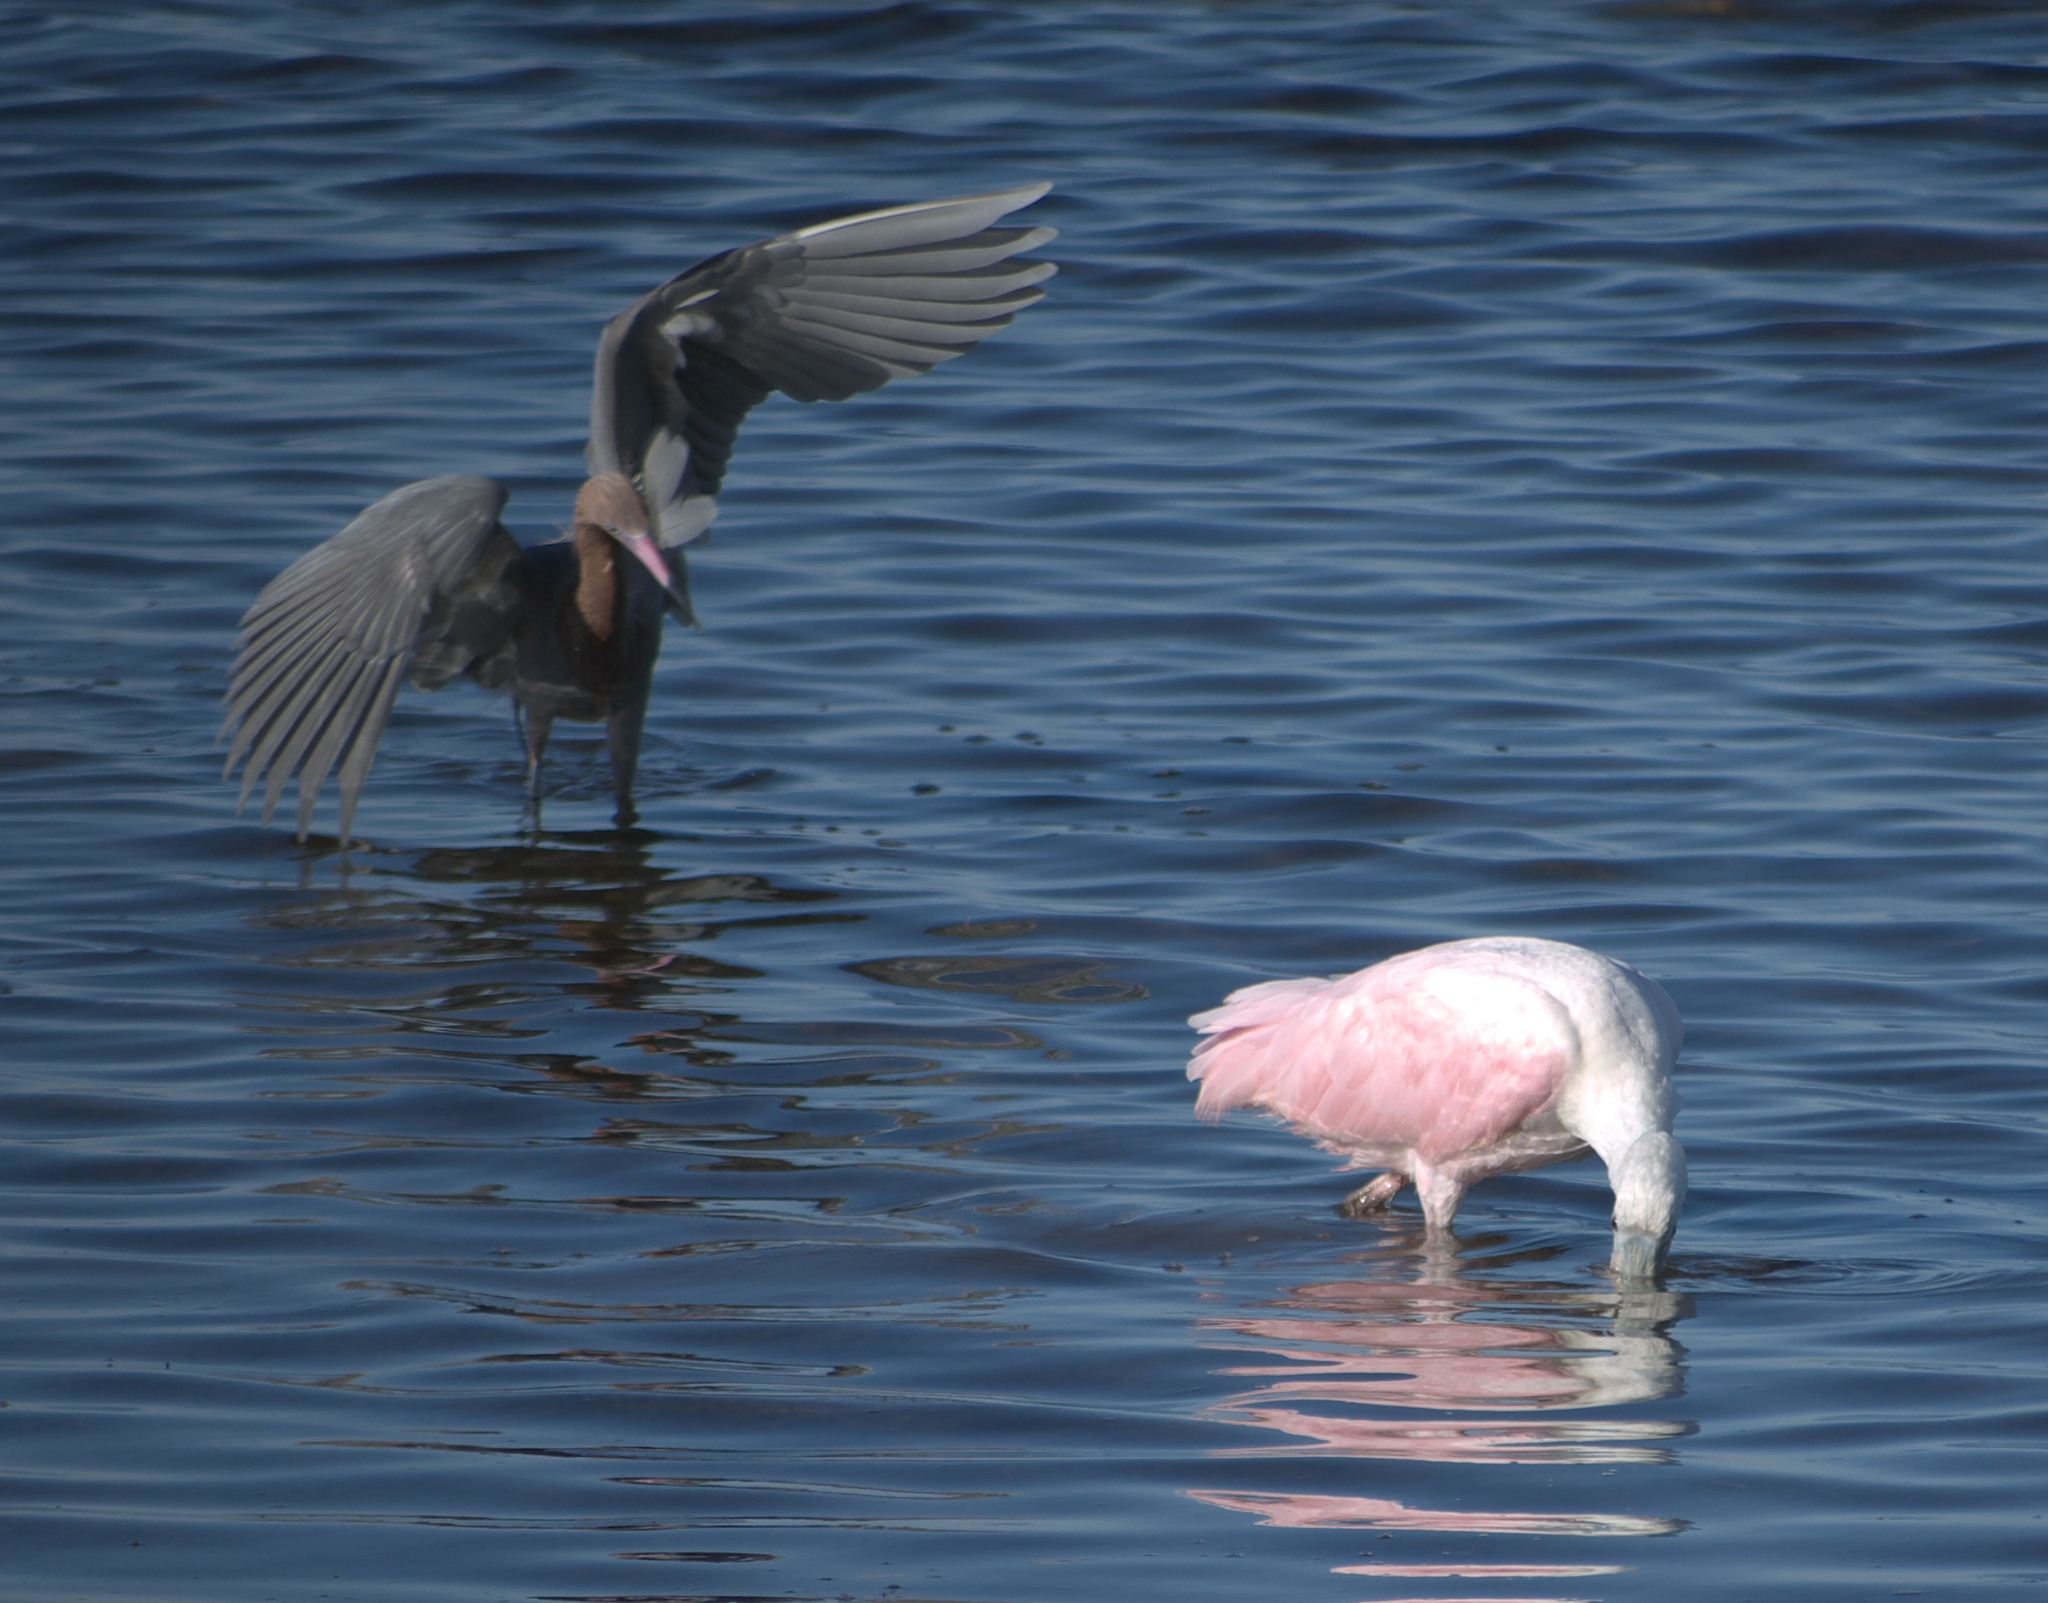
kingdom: Animalia
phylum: Chordata
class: Aves
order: Pelecaniformes
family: Ardeidae
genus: Egretta
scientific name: Egretta rufescens
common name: Reddish egret
